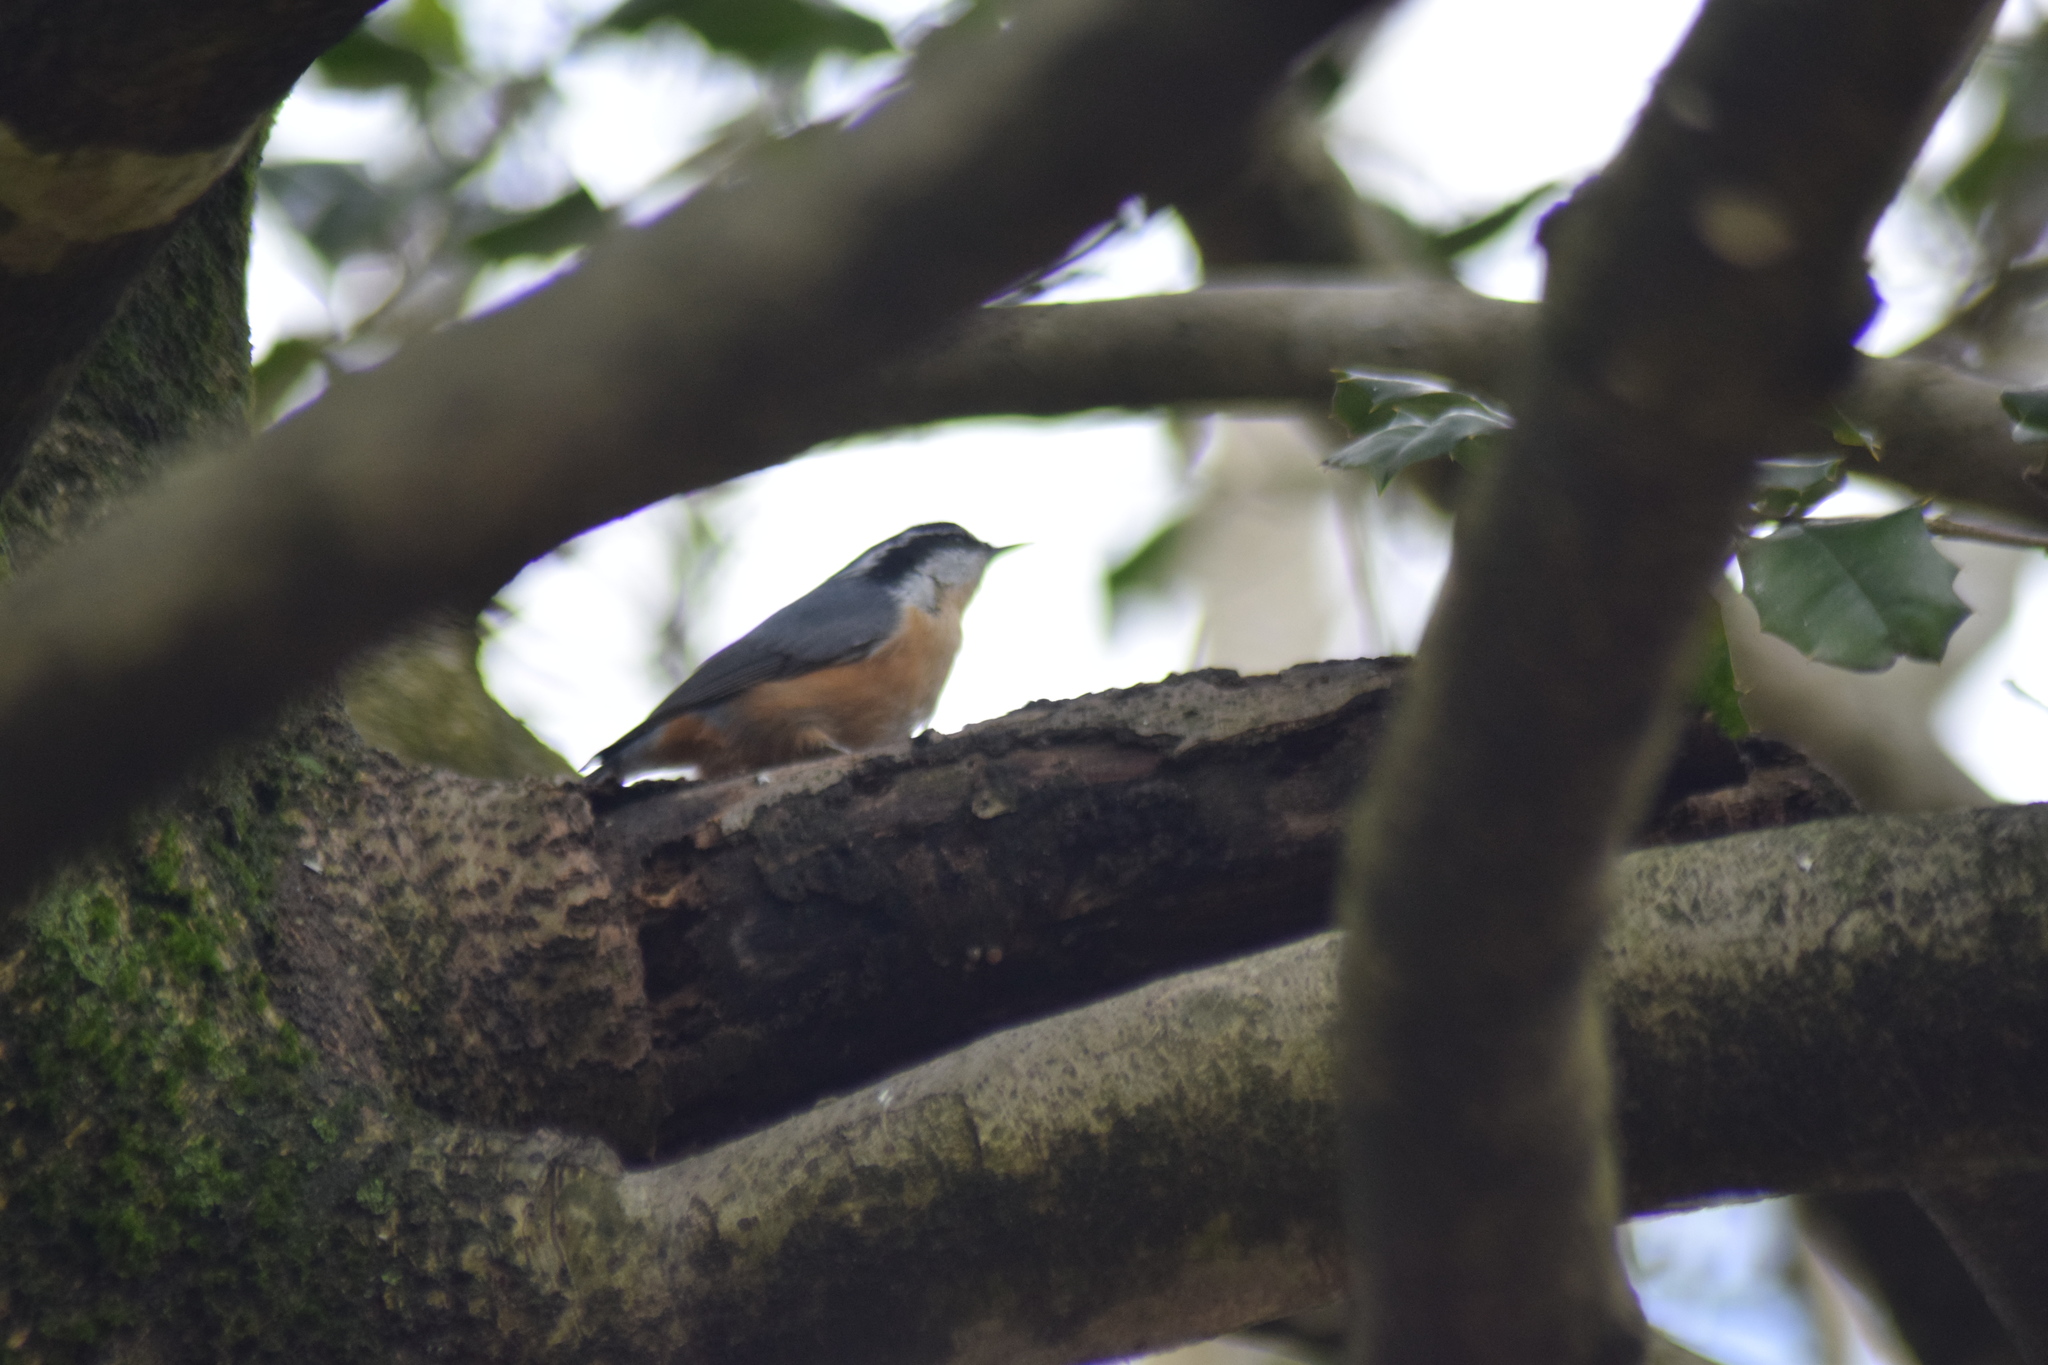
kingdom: Animalia
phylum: Chordata
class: Aves
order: Passeriformes
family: Sittidae
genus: Sitta
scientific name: Sitta canadensis
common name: Red-breasted nuthatch
